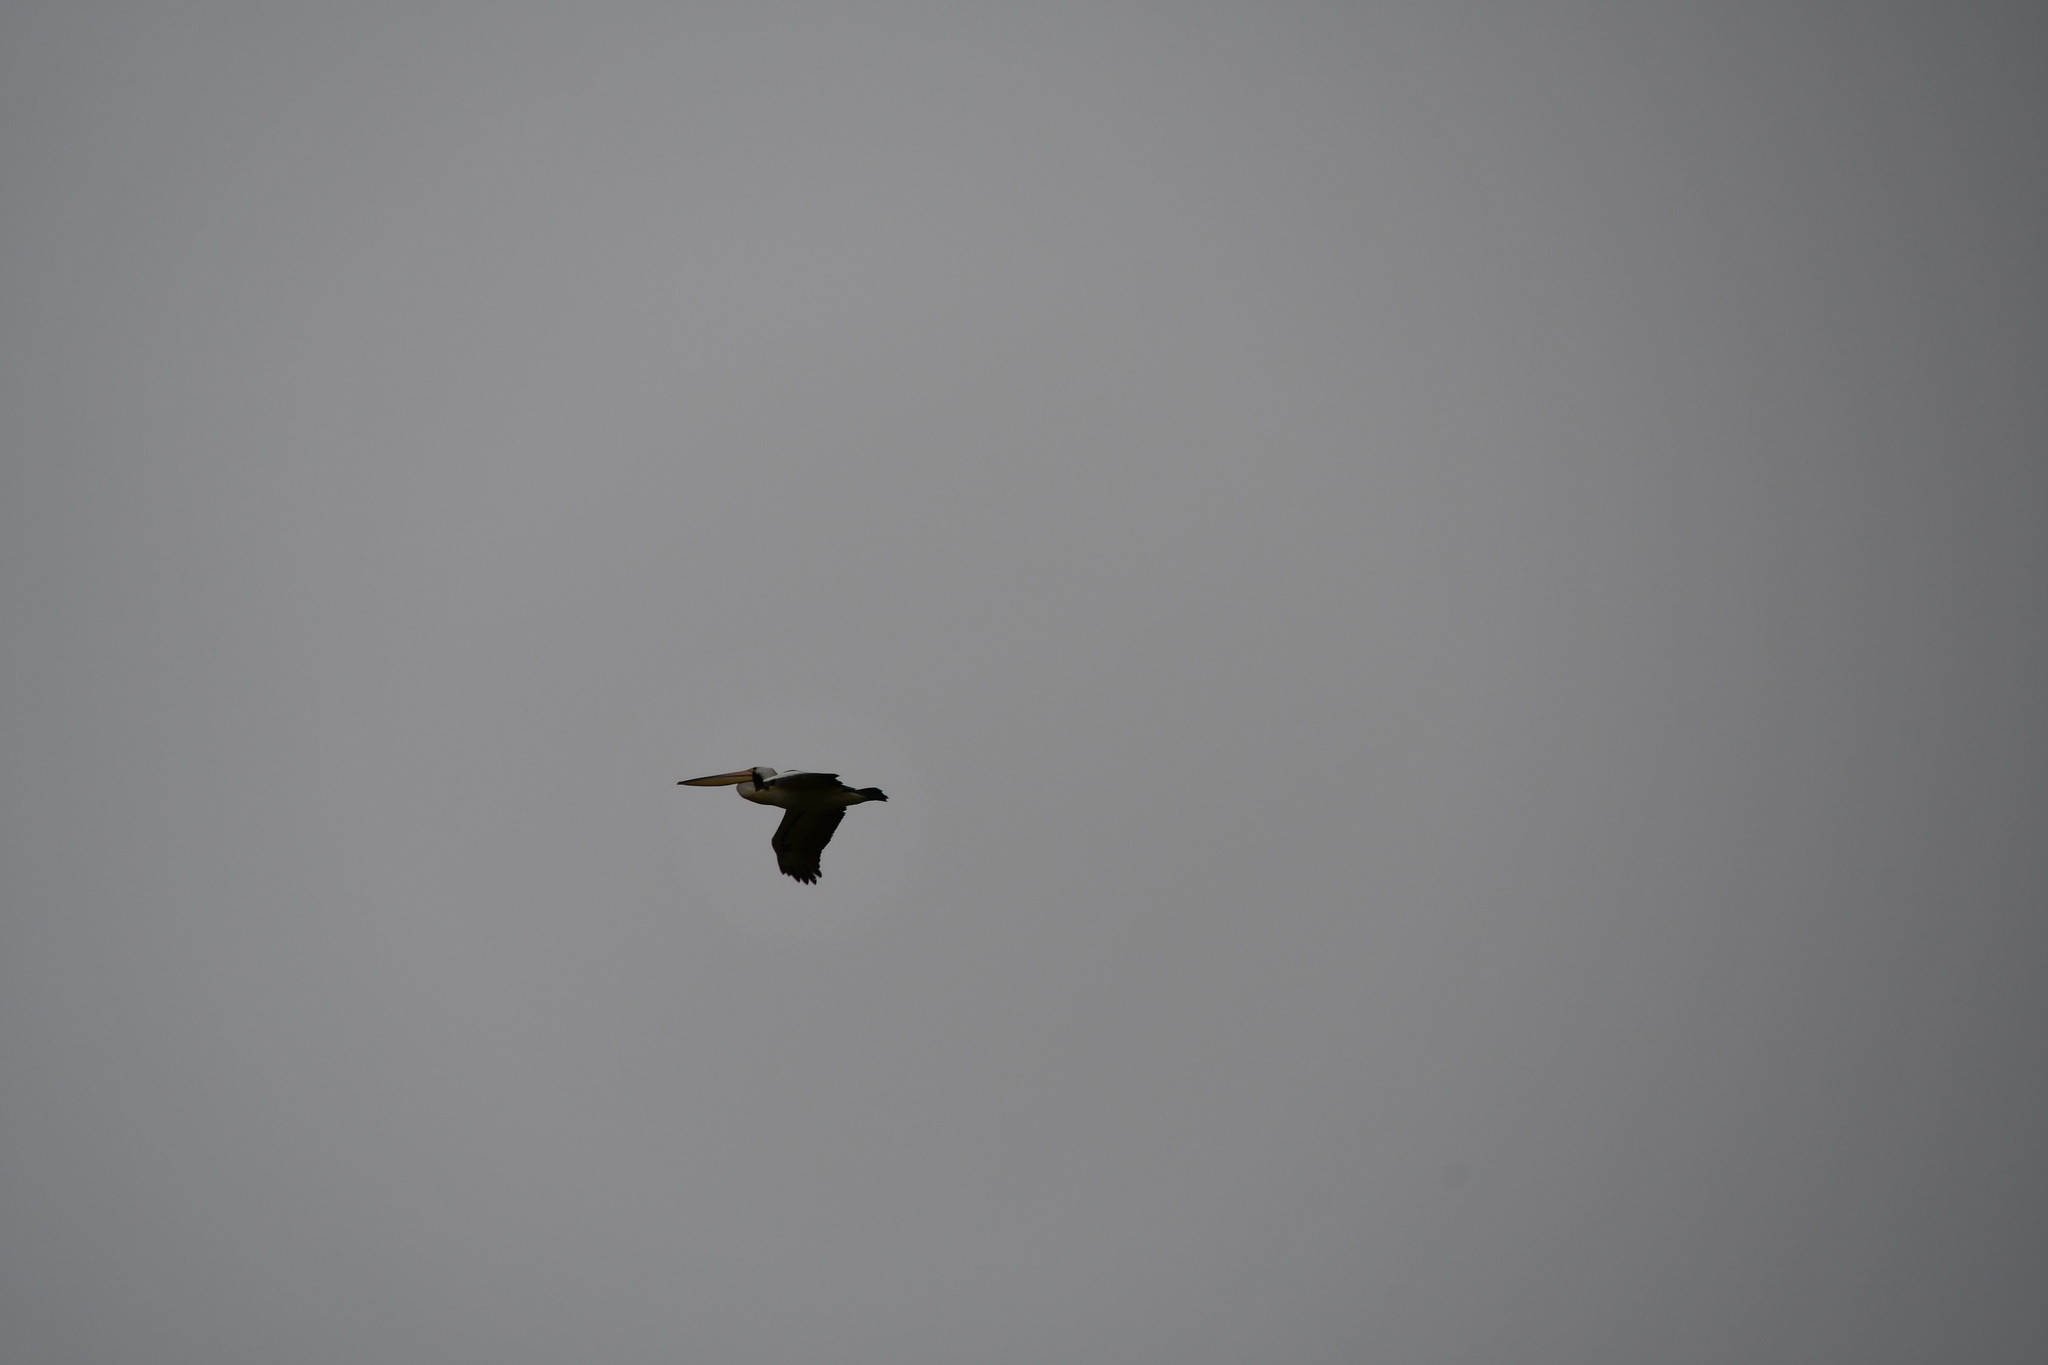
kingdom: Animalia
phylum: Chordata
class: Aves
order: Pelecaniformes
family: Pelecanidae
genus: Pelecanus
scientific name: Pelecanus conspicillatus
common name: Australian pelican
